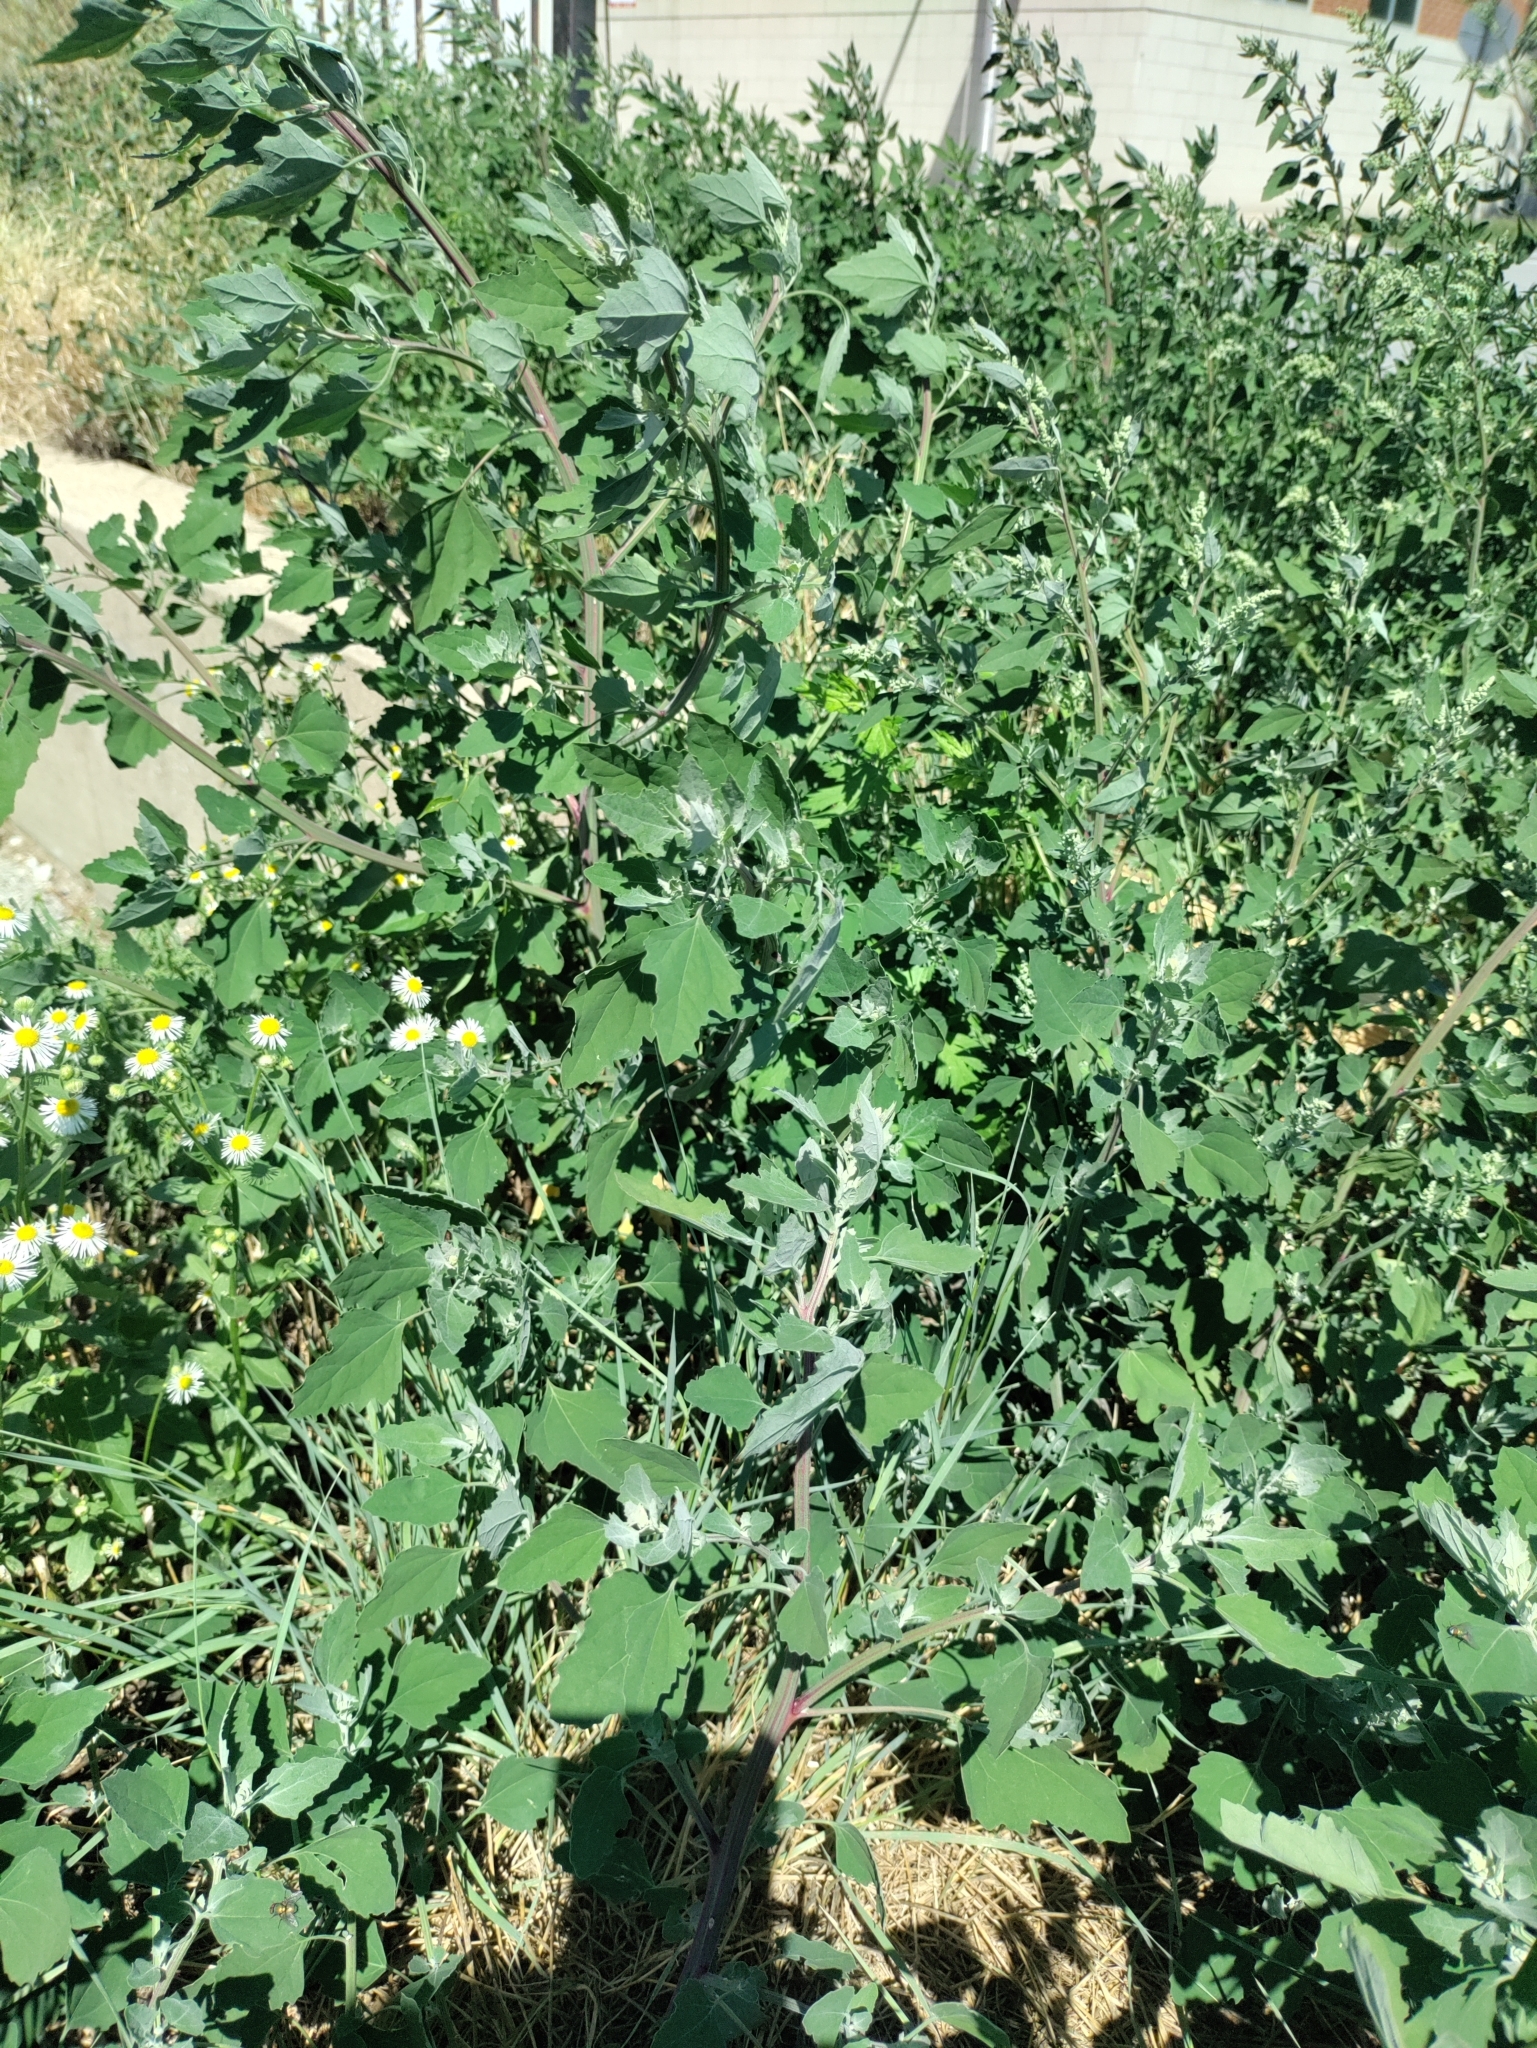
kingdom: Plantae
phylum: Tracheophyta
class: Magnoliopsida
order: Caryophyllales
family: Amaranthaceae
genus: Chenopodium
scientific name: Chenopodium album
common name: Fat-hen
